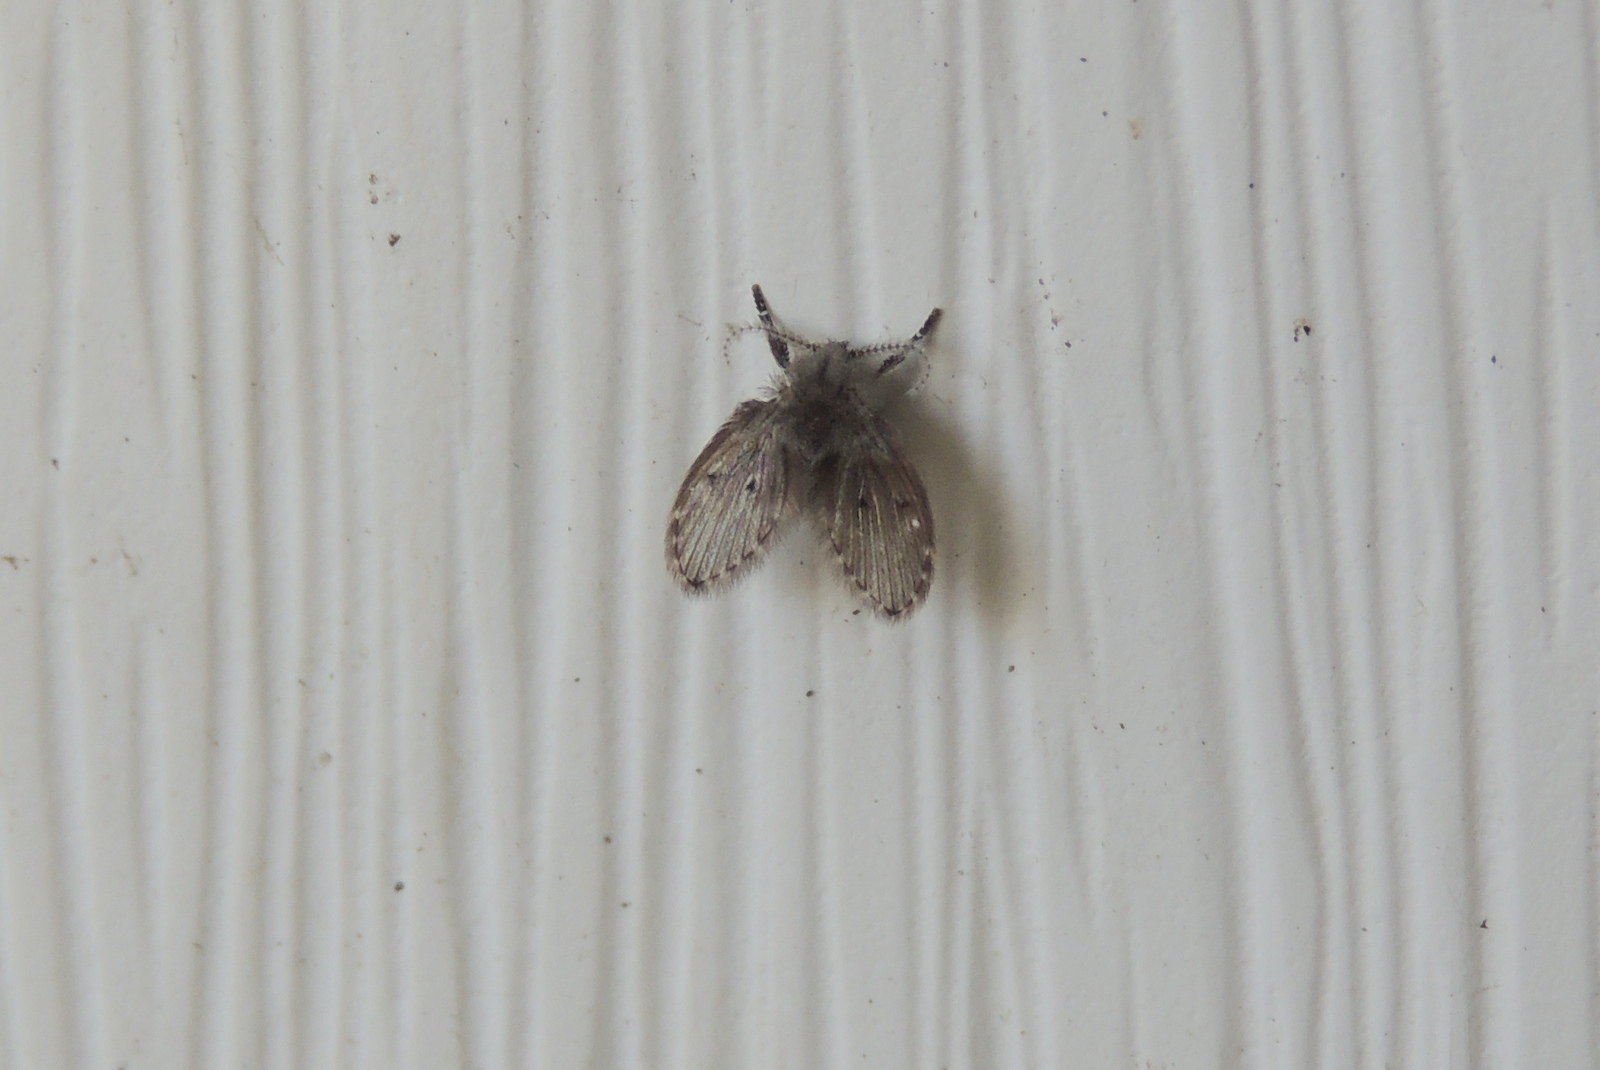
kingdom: Animalia
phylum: Arthropoda
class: Insecta
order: Diptera
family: Psychodidae
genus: Clogmia
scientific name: Clogmia albipunctatus
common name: White-spotted moth fly
